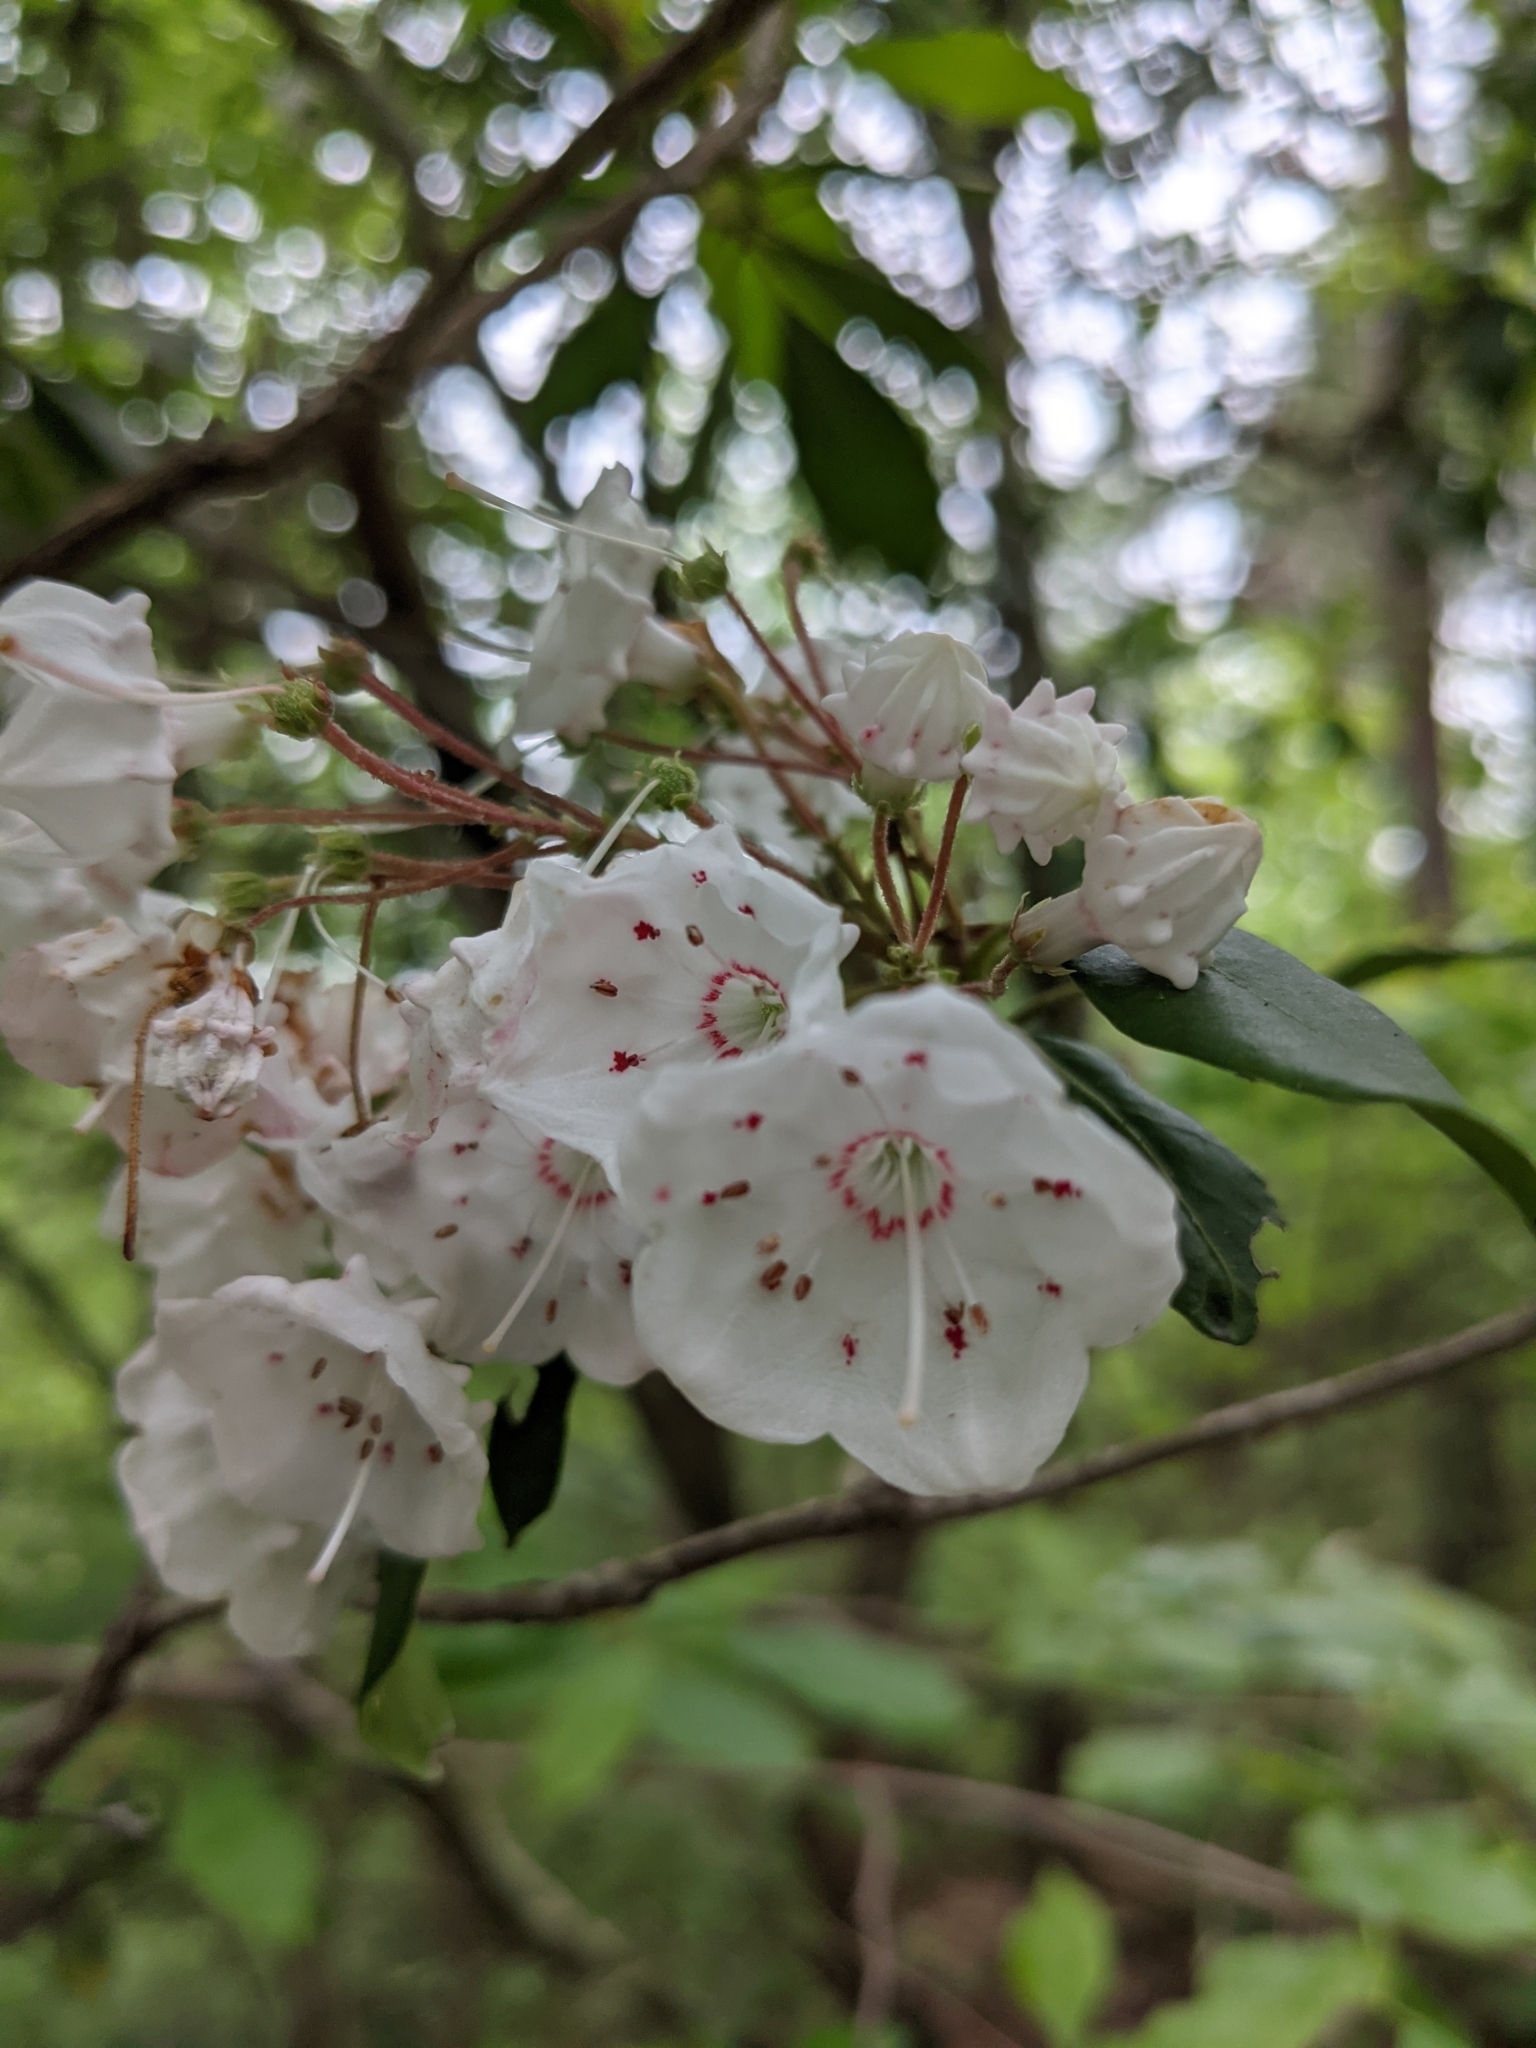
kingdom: Plantae
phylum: Tracheophyta
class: Magnoliopsida
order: Ericales
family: Ericaceae
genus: Kalmia
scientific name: Kalmia latifolia
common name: Mountain-laurel
